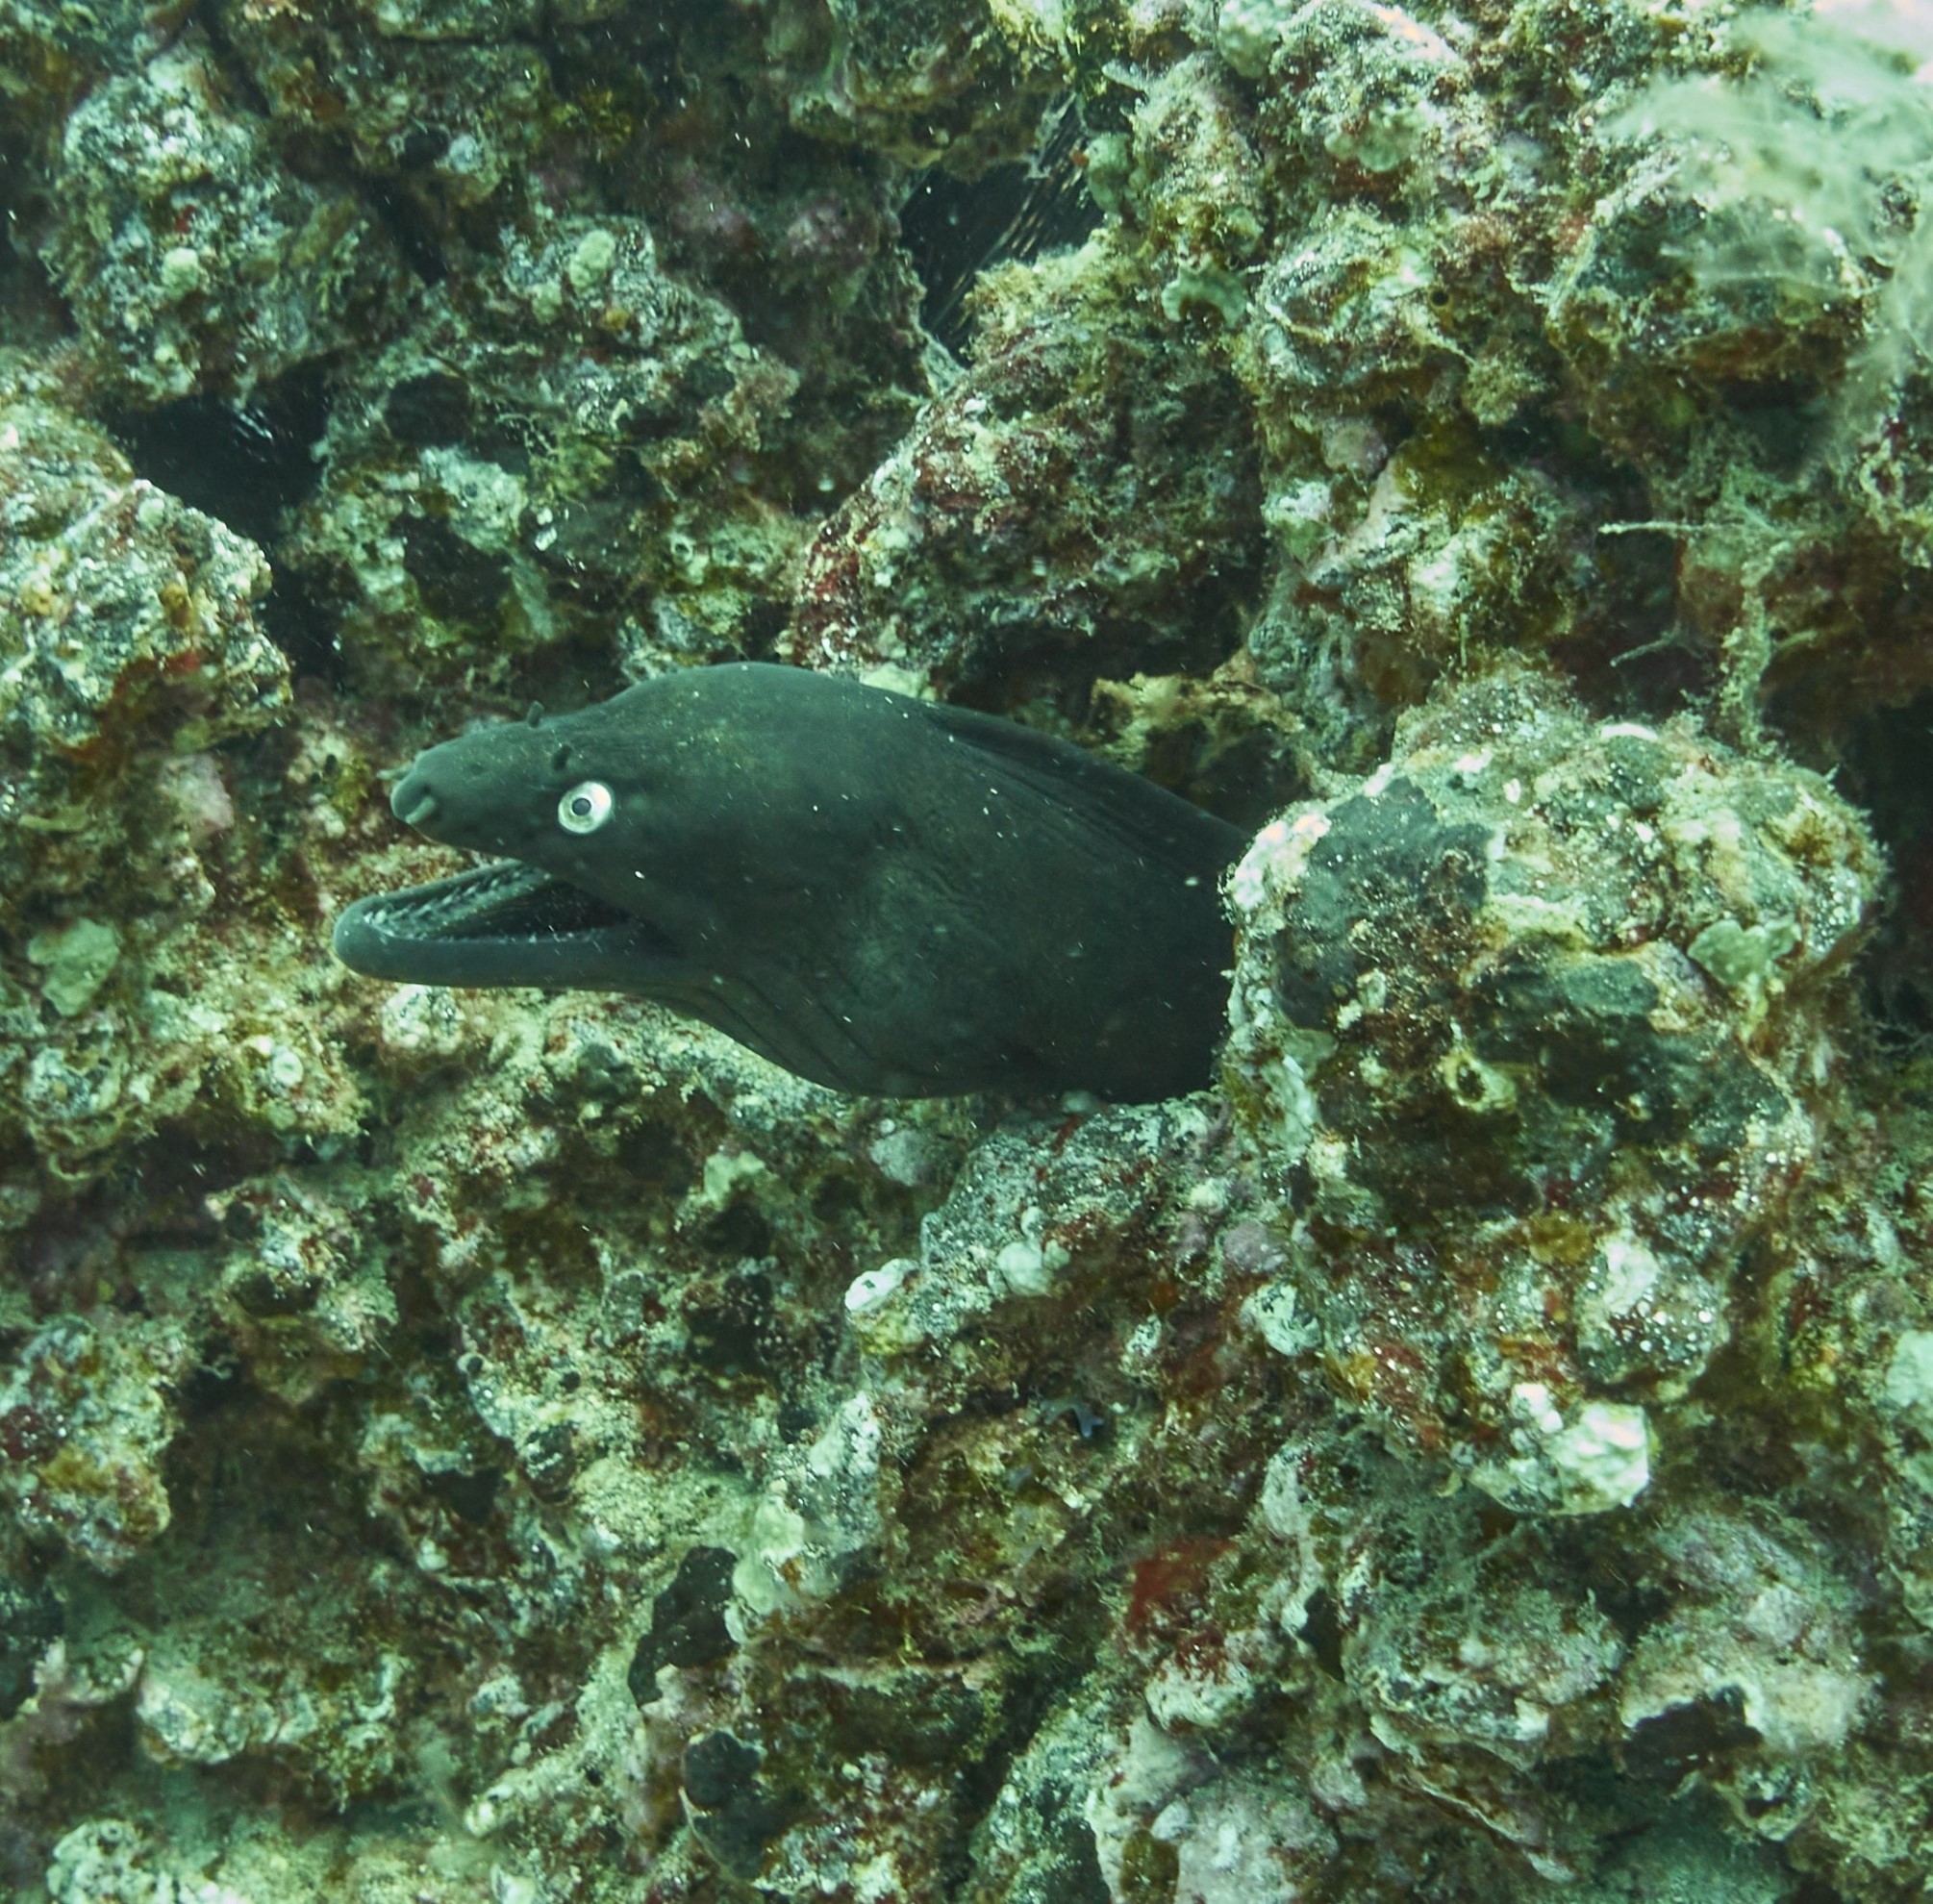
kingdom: Animalia
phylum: Chordata
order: Anguilliformes
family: Muraenidae
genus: Muraena
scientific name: Muraena augusti
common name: Mediterranean moray
